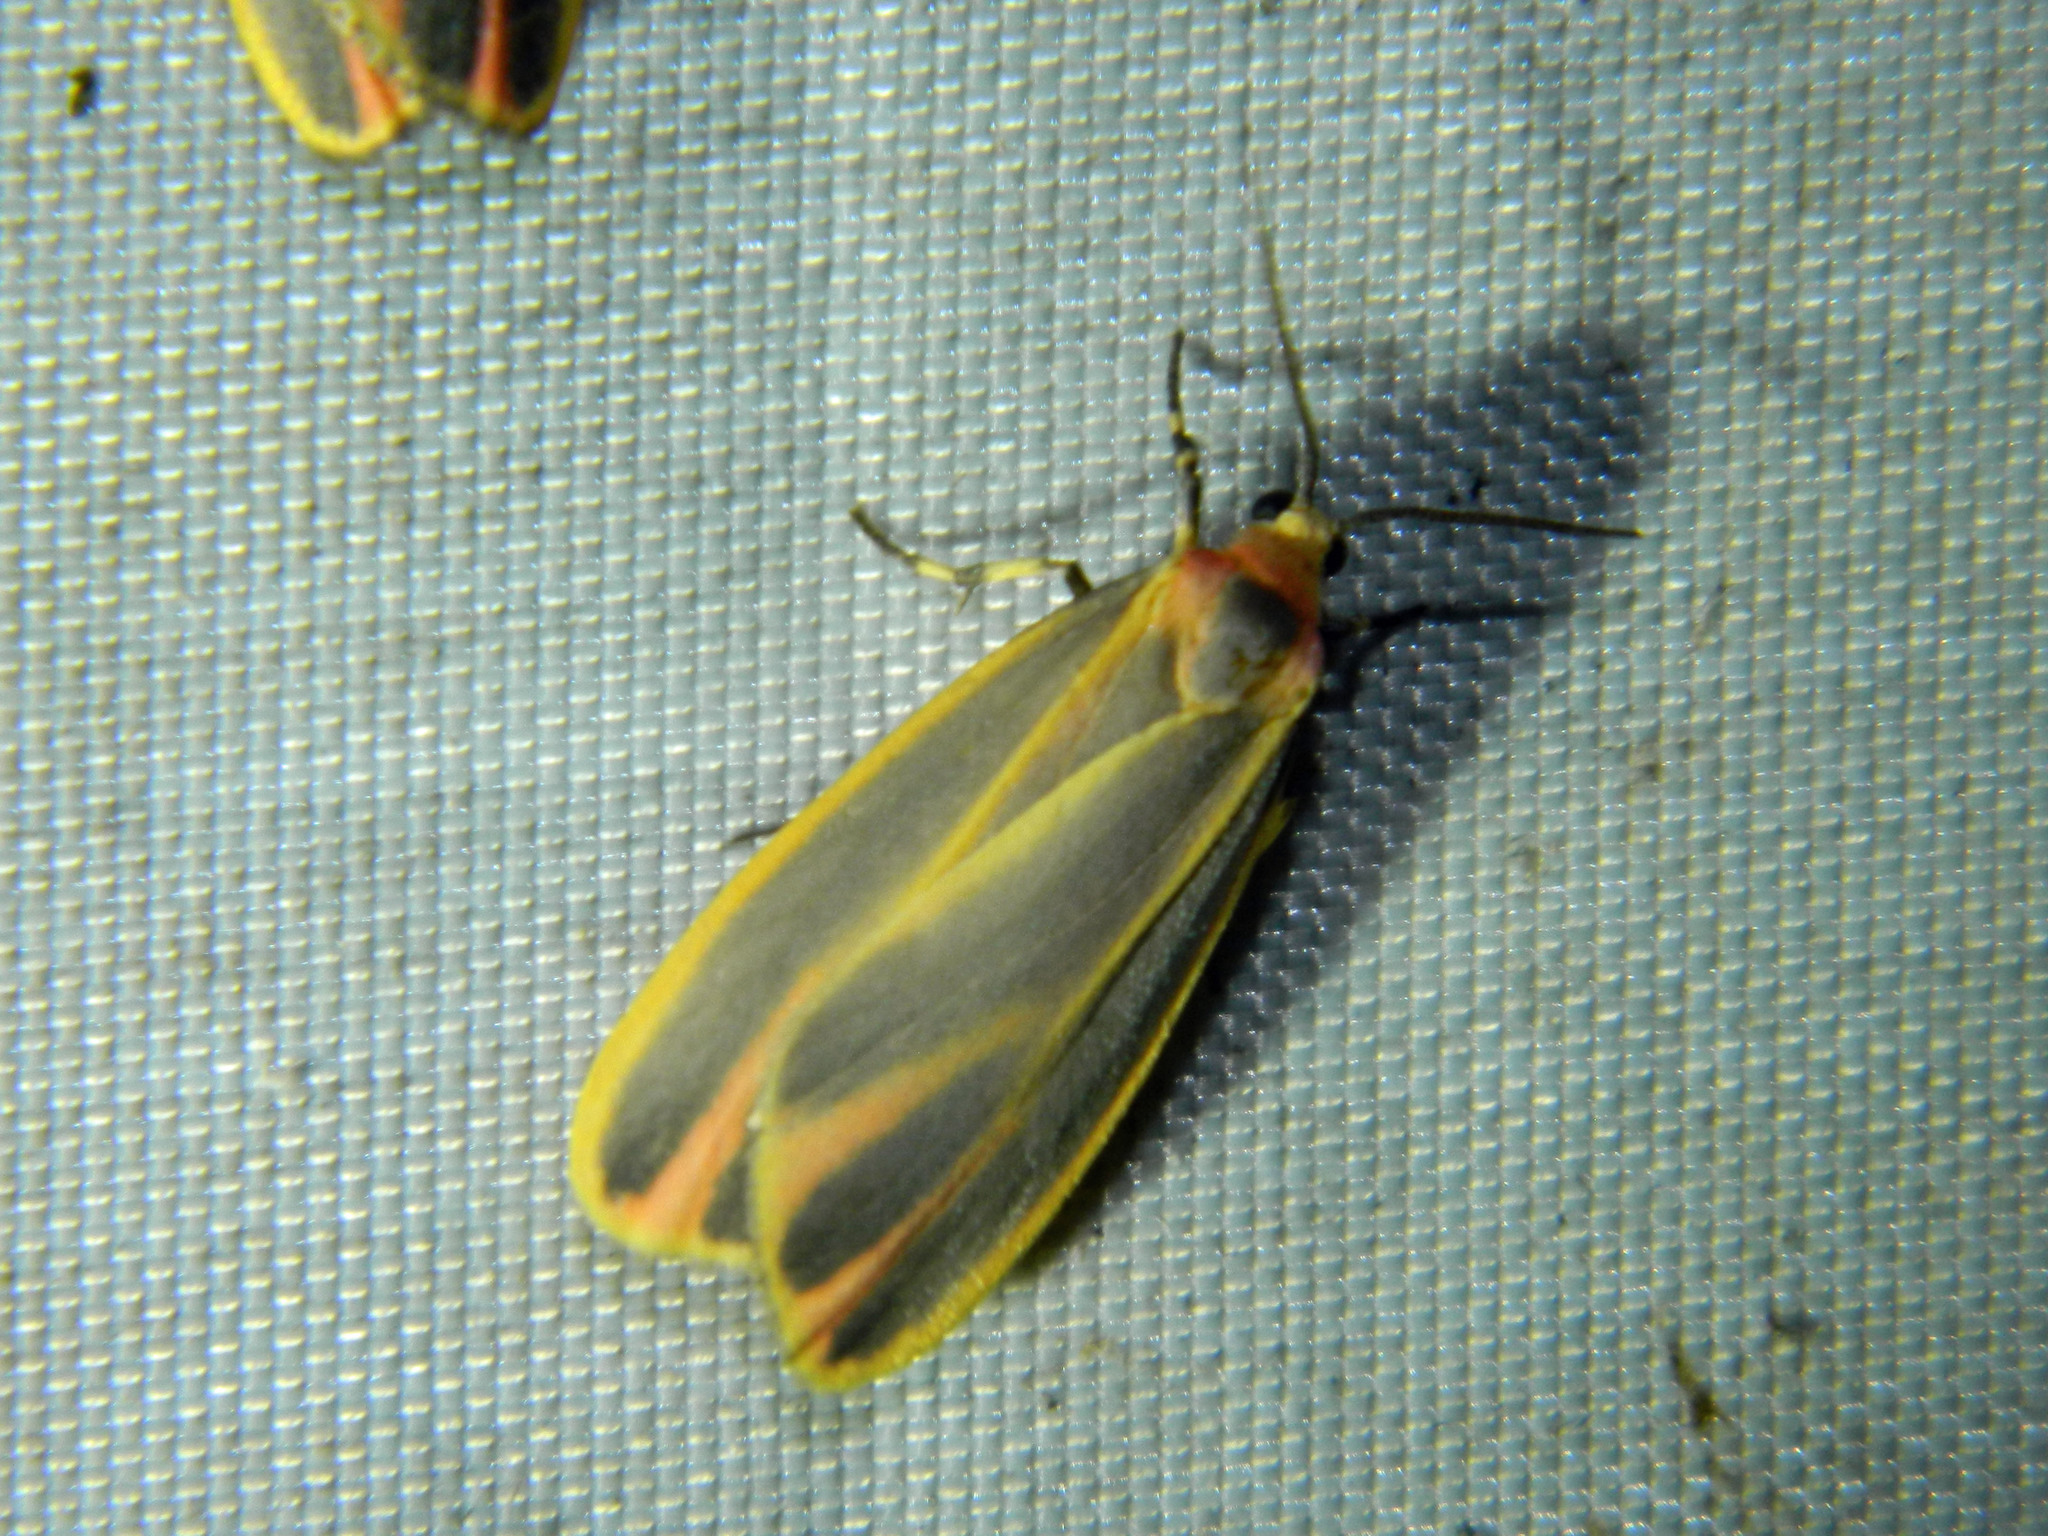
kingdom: Animalia
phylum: Arthropoda
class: Insecta
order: Lepidoptera
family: Erebidae
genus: Hypoprepia
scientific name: Hypoprepia fucosa
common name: Painted lichen moth
